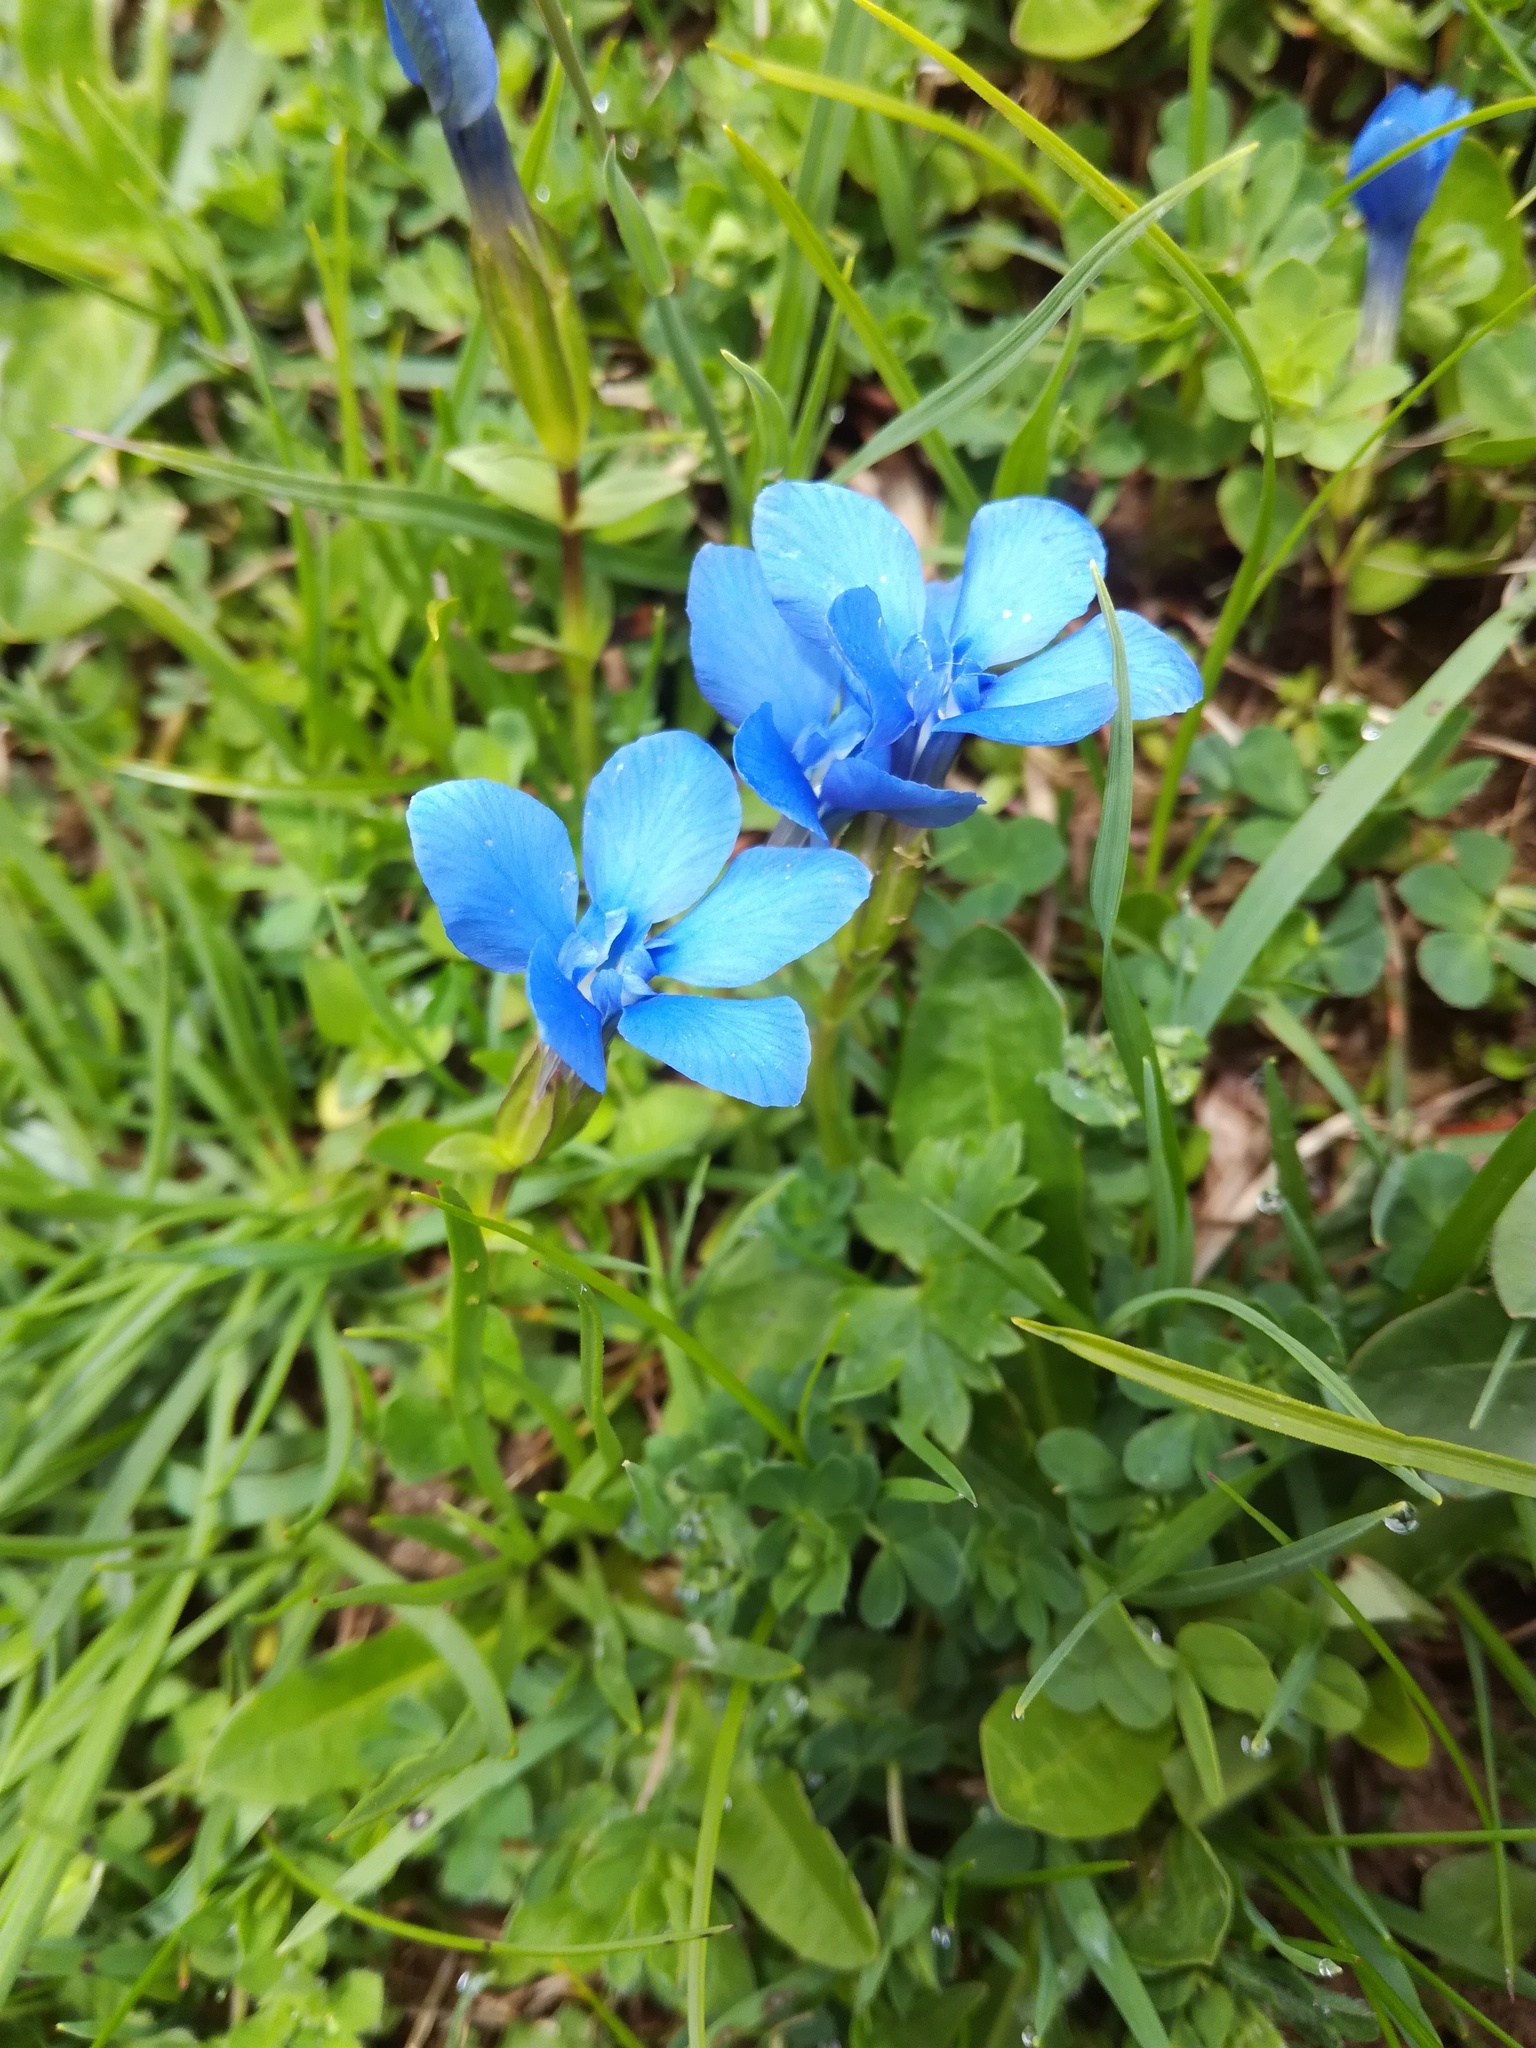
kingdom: Plantae
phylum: Tracheophyta
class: Magnoliopsida
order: Gentianales
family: Gentianaceae
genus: Gentiana
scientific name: Gentiana verna
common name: Spring gentian
